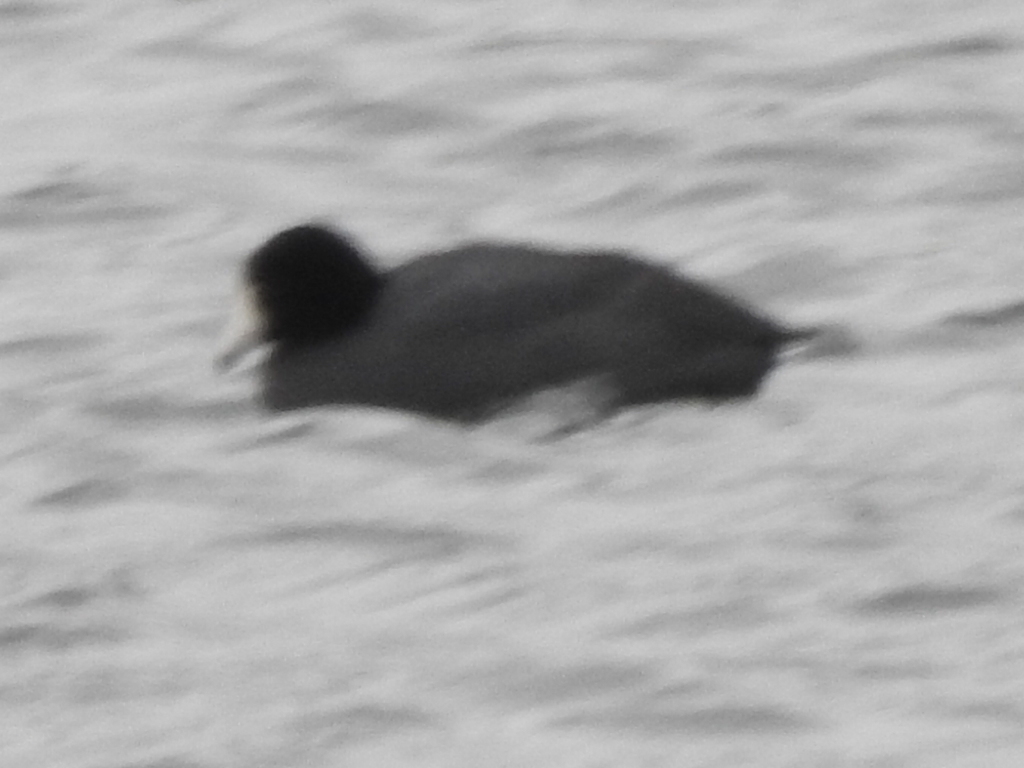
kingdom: Animalia
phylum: Chordata
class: Aves
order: Gruiformes
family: Rallidae
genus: Fulica
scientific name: Fulica americana
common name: American coot
